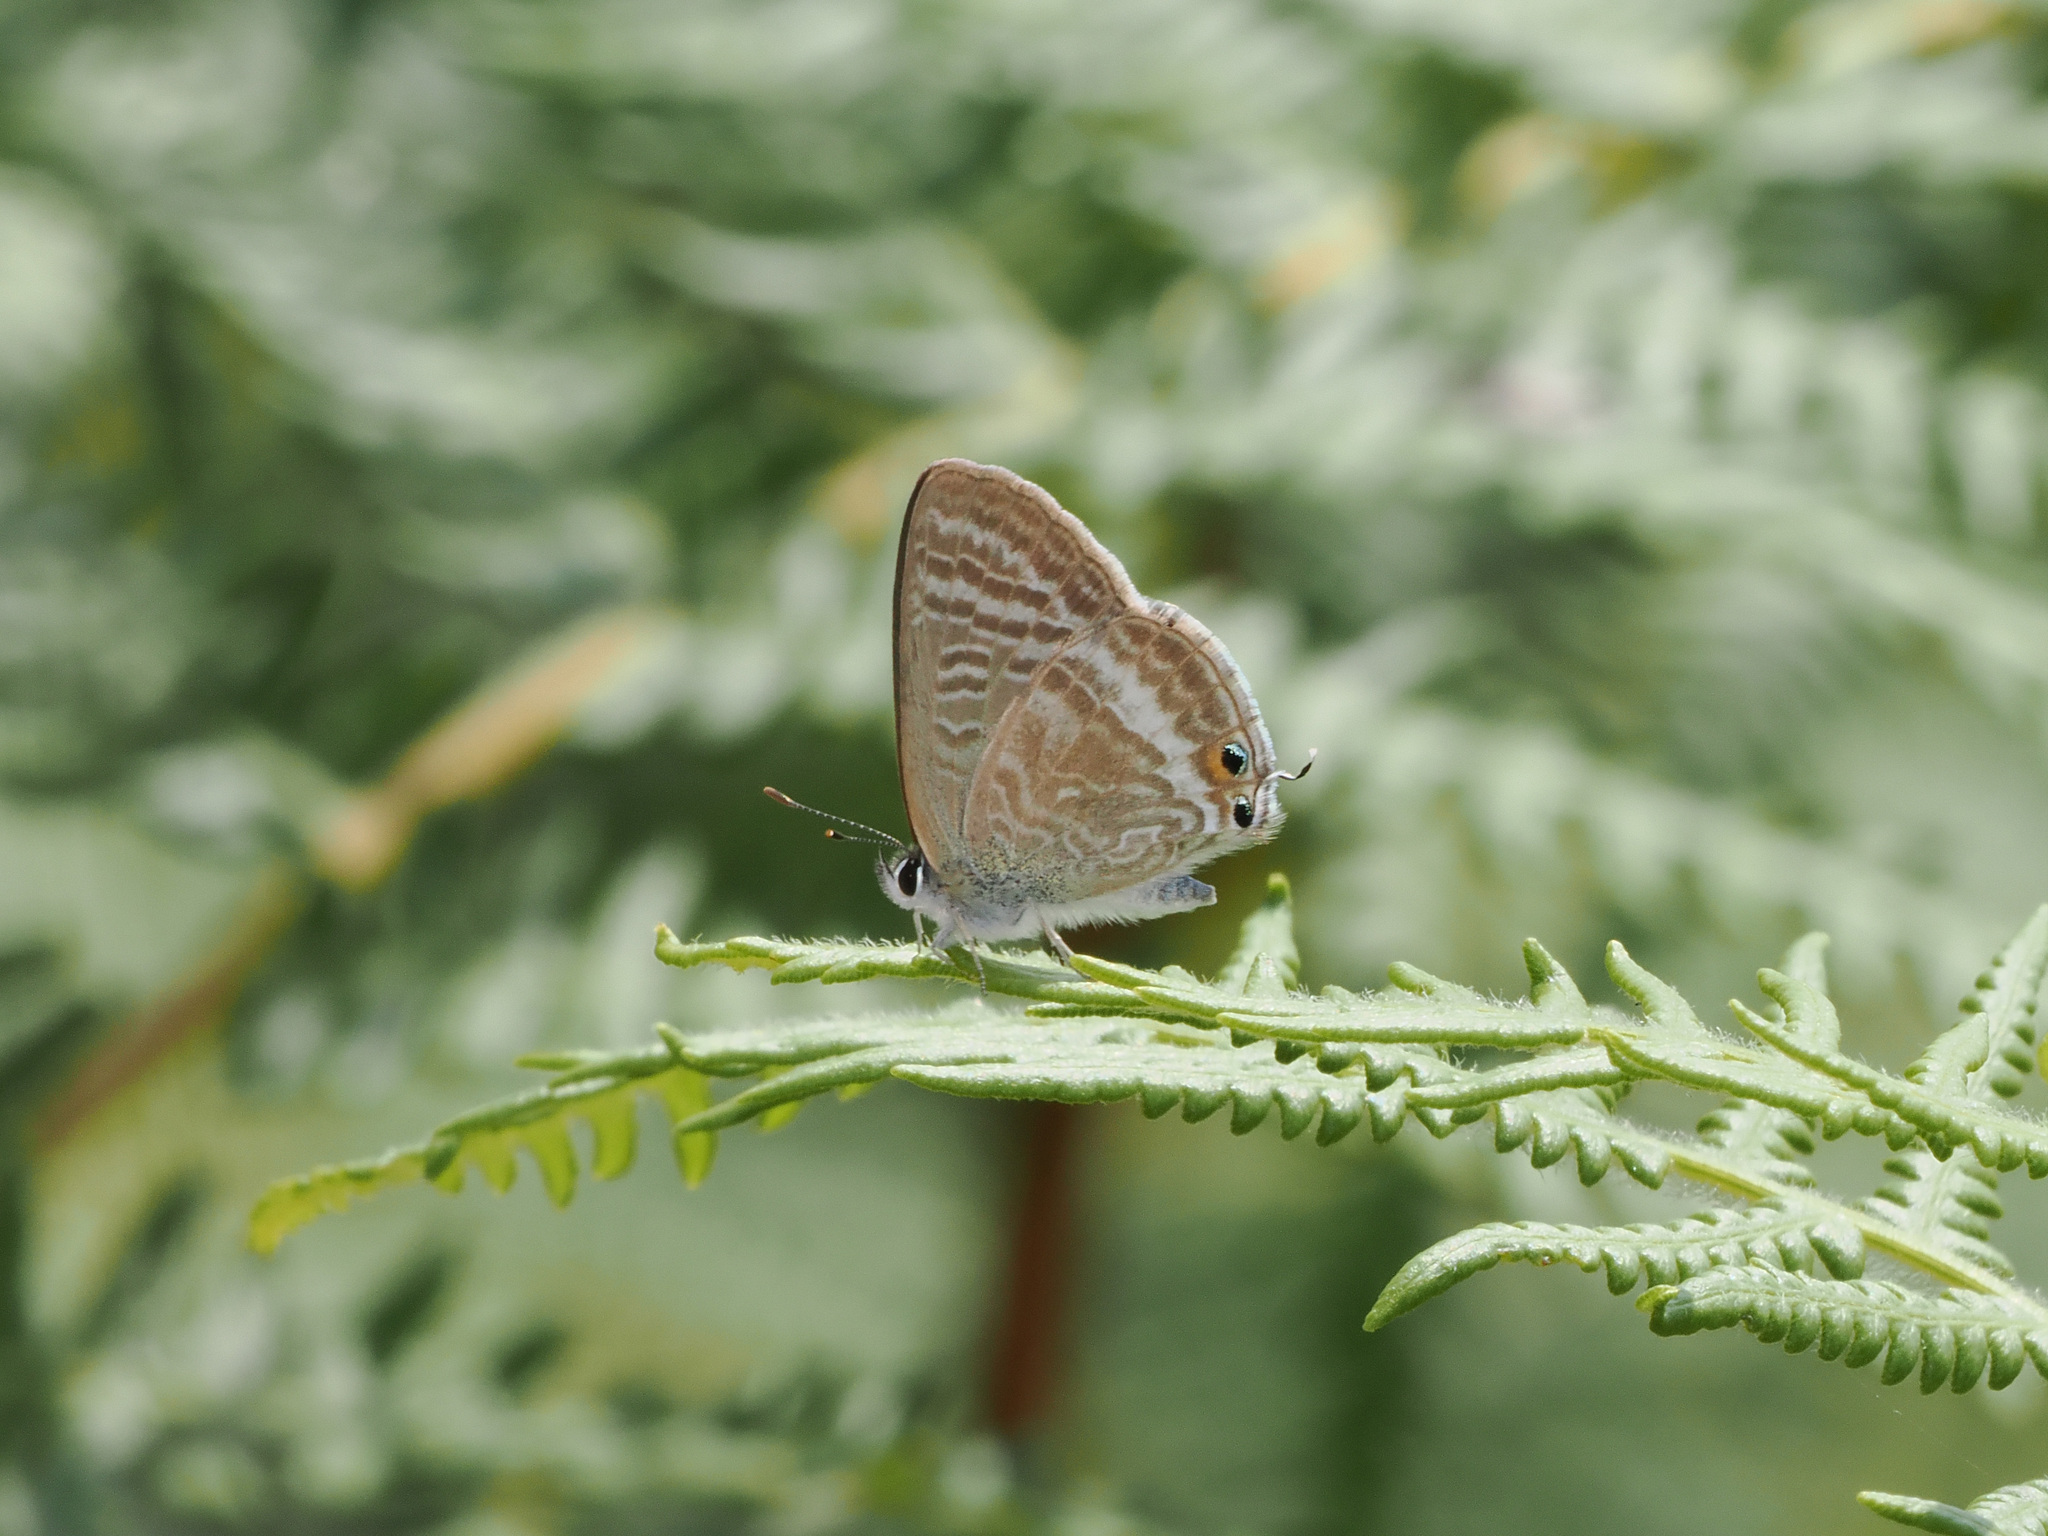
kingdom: Animalia
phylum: Arthropoda
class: Insecta
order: Lepidoptera
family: Lycaenidae
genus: Lampides
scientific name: Lampides boeticus
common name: Long-tailed blue
